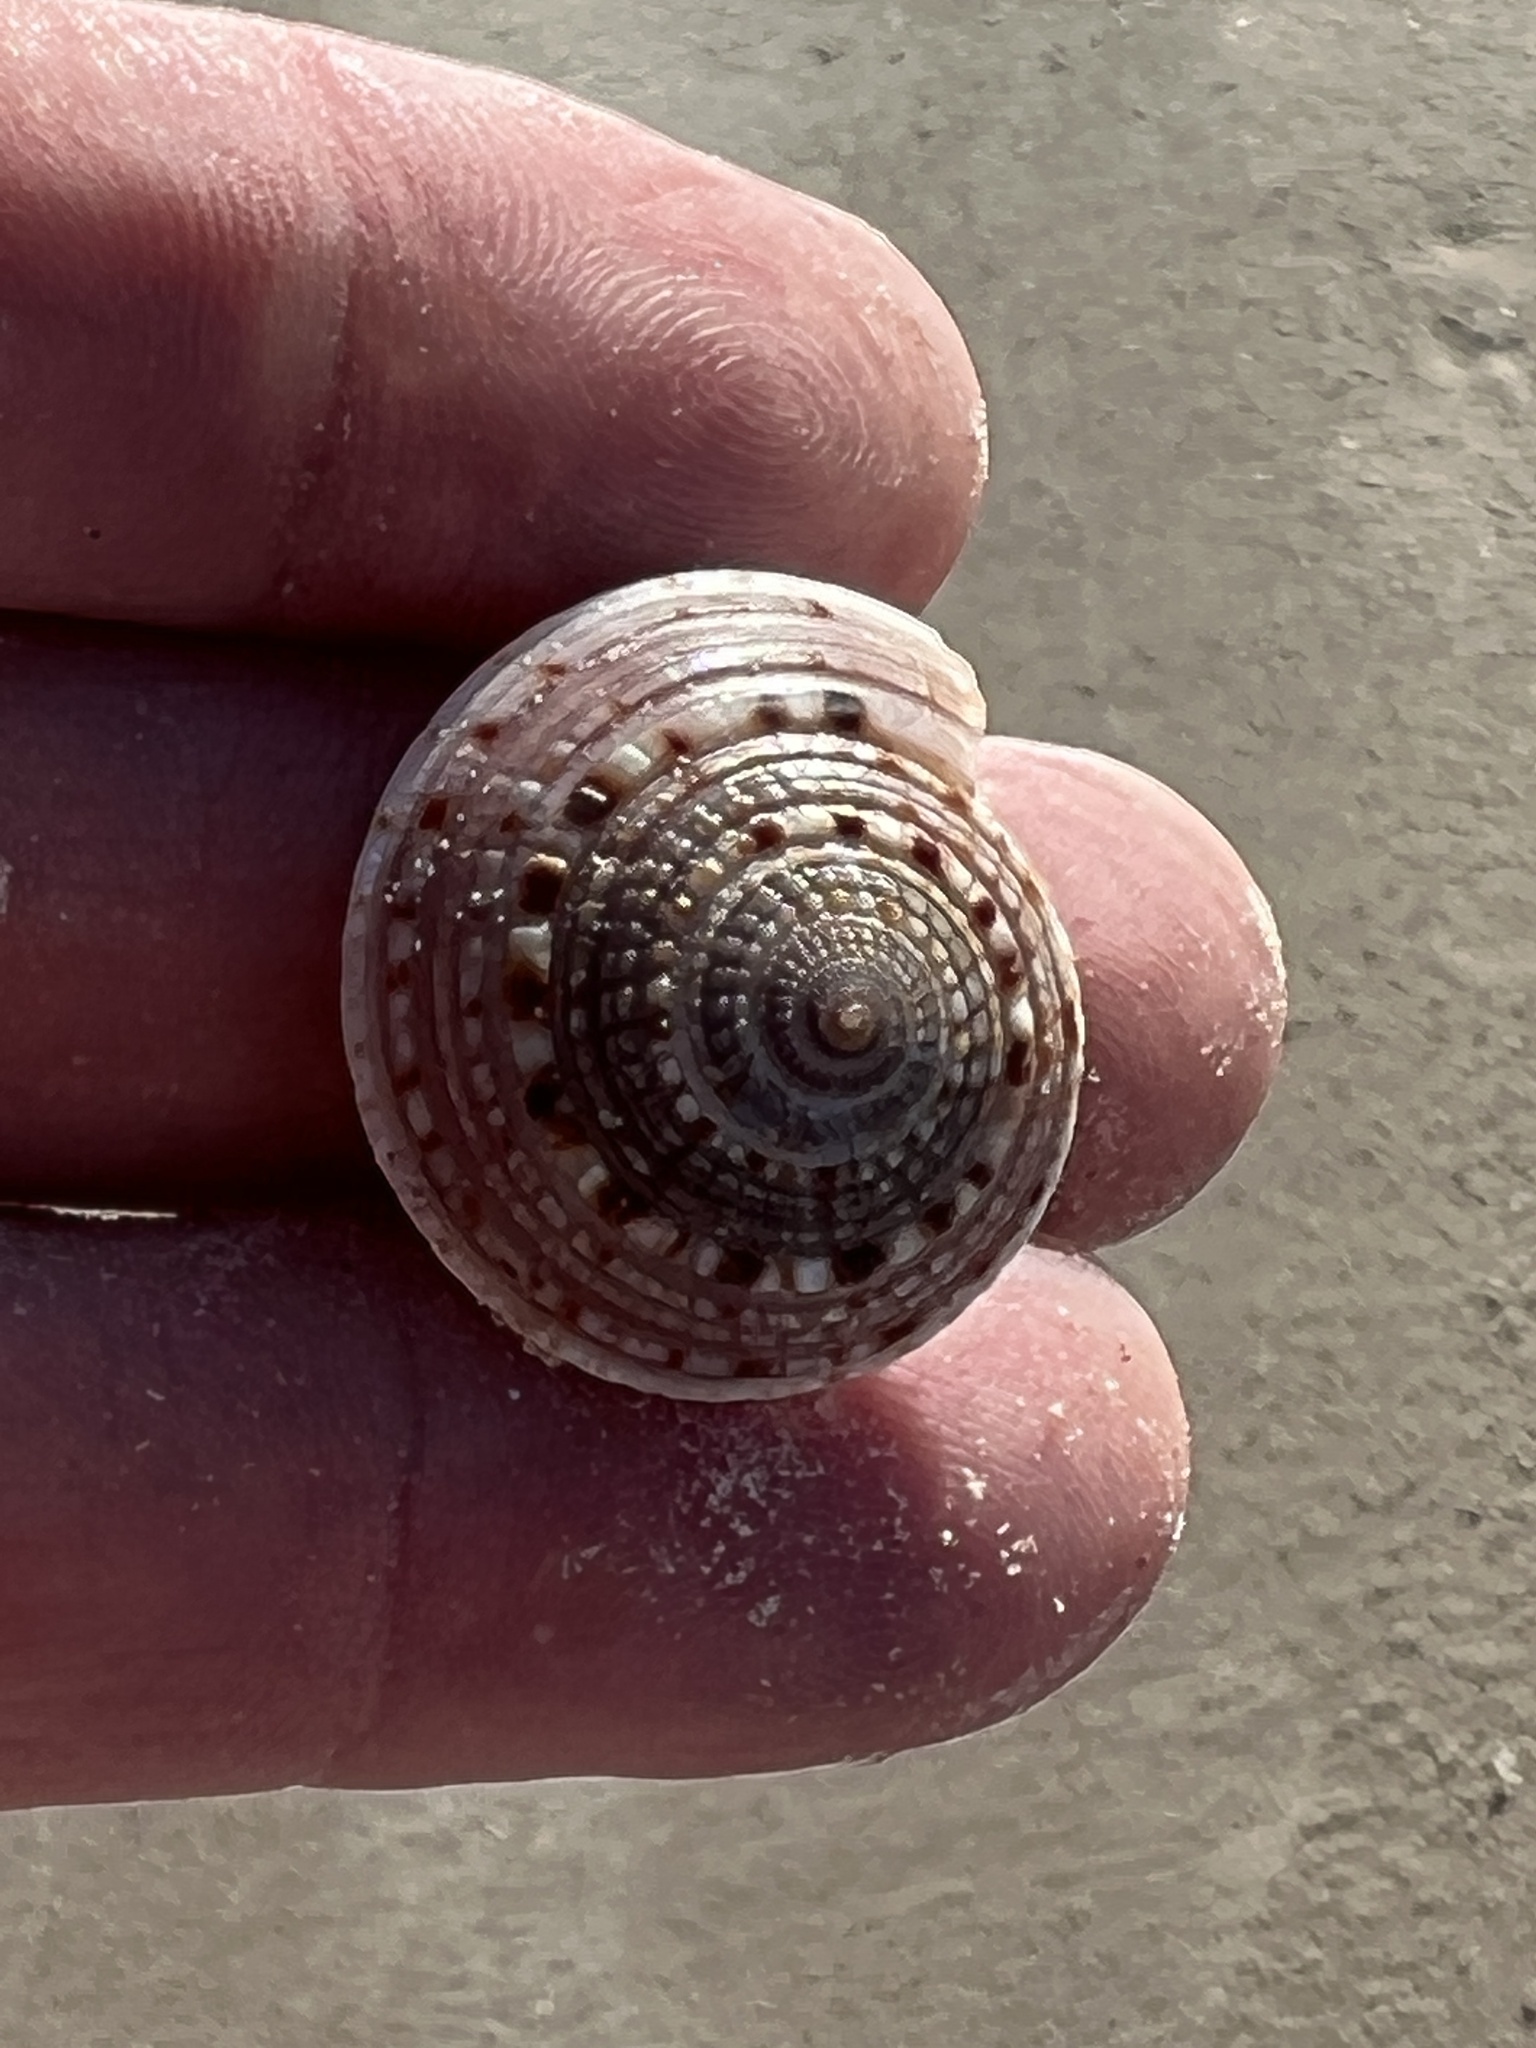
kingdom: Animalia
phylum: Mollusca
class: Gastropoda
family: Architectonicidae
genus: Architectonica
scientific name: Architectonica nobilis
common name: Common sundial
